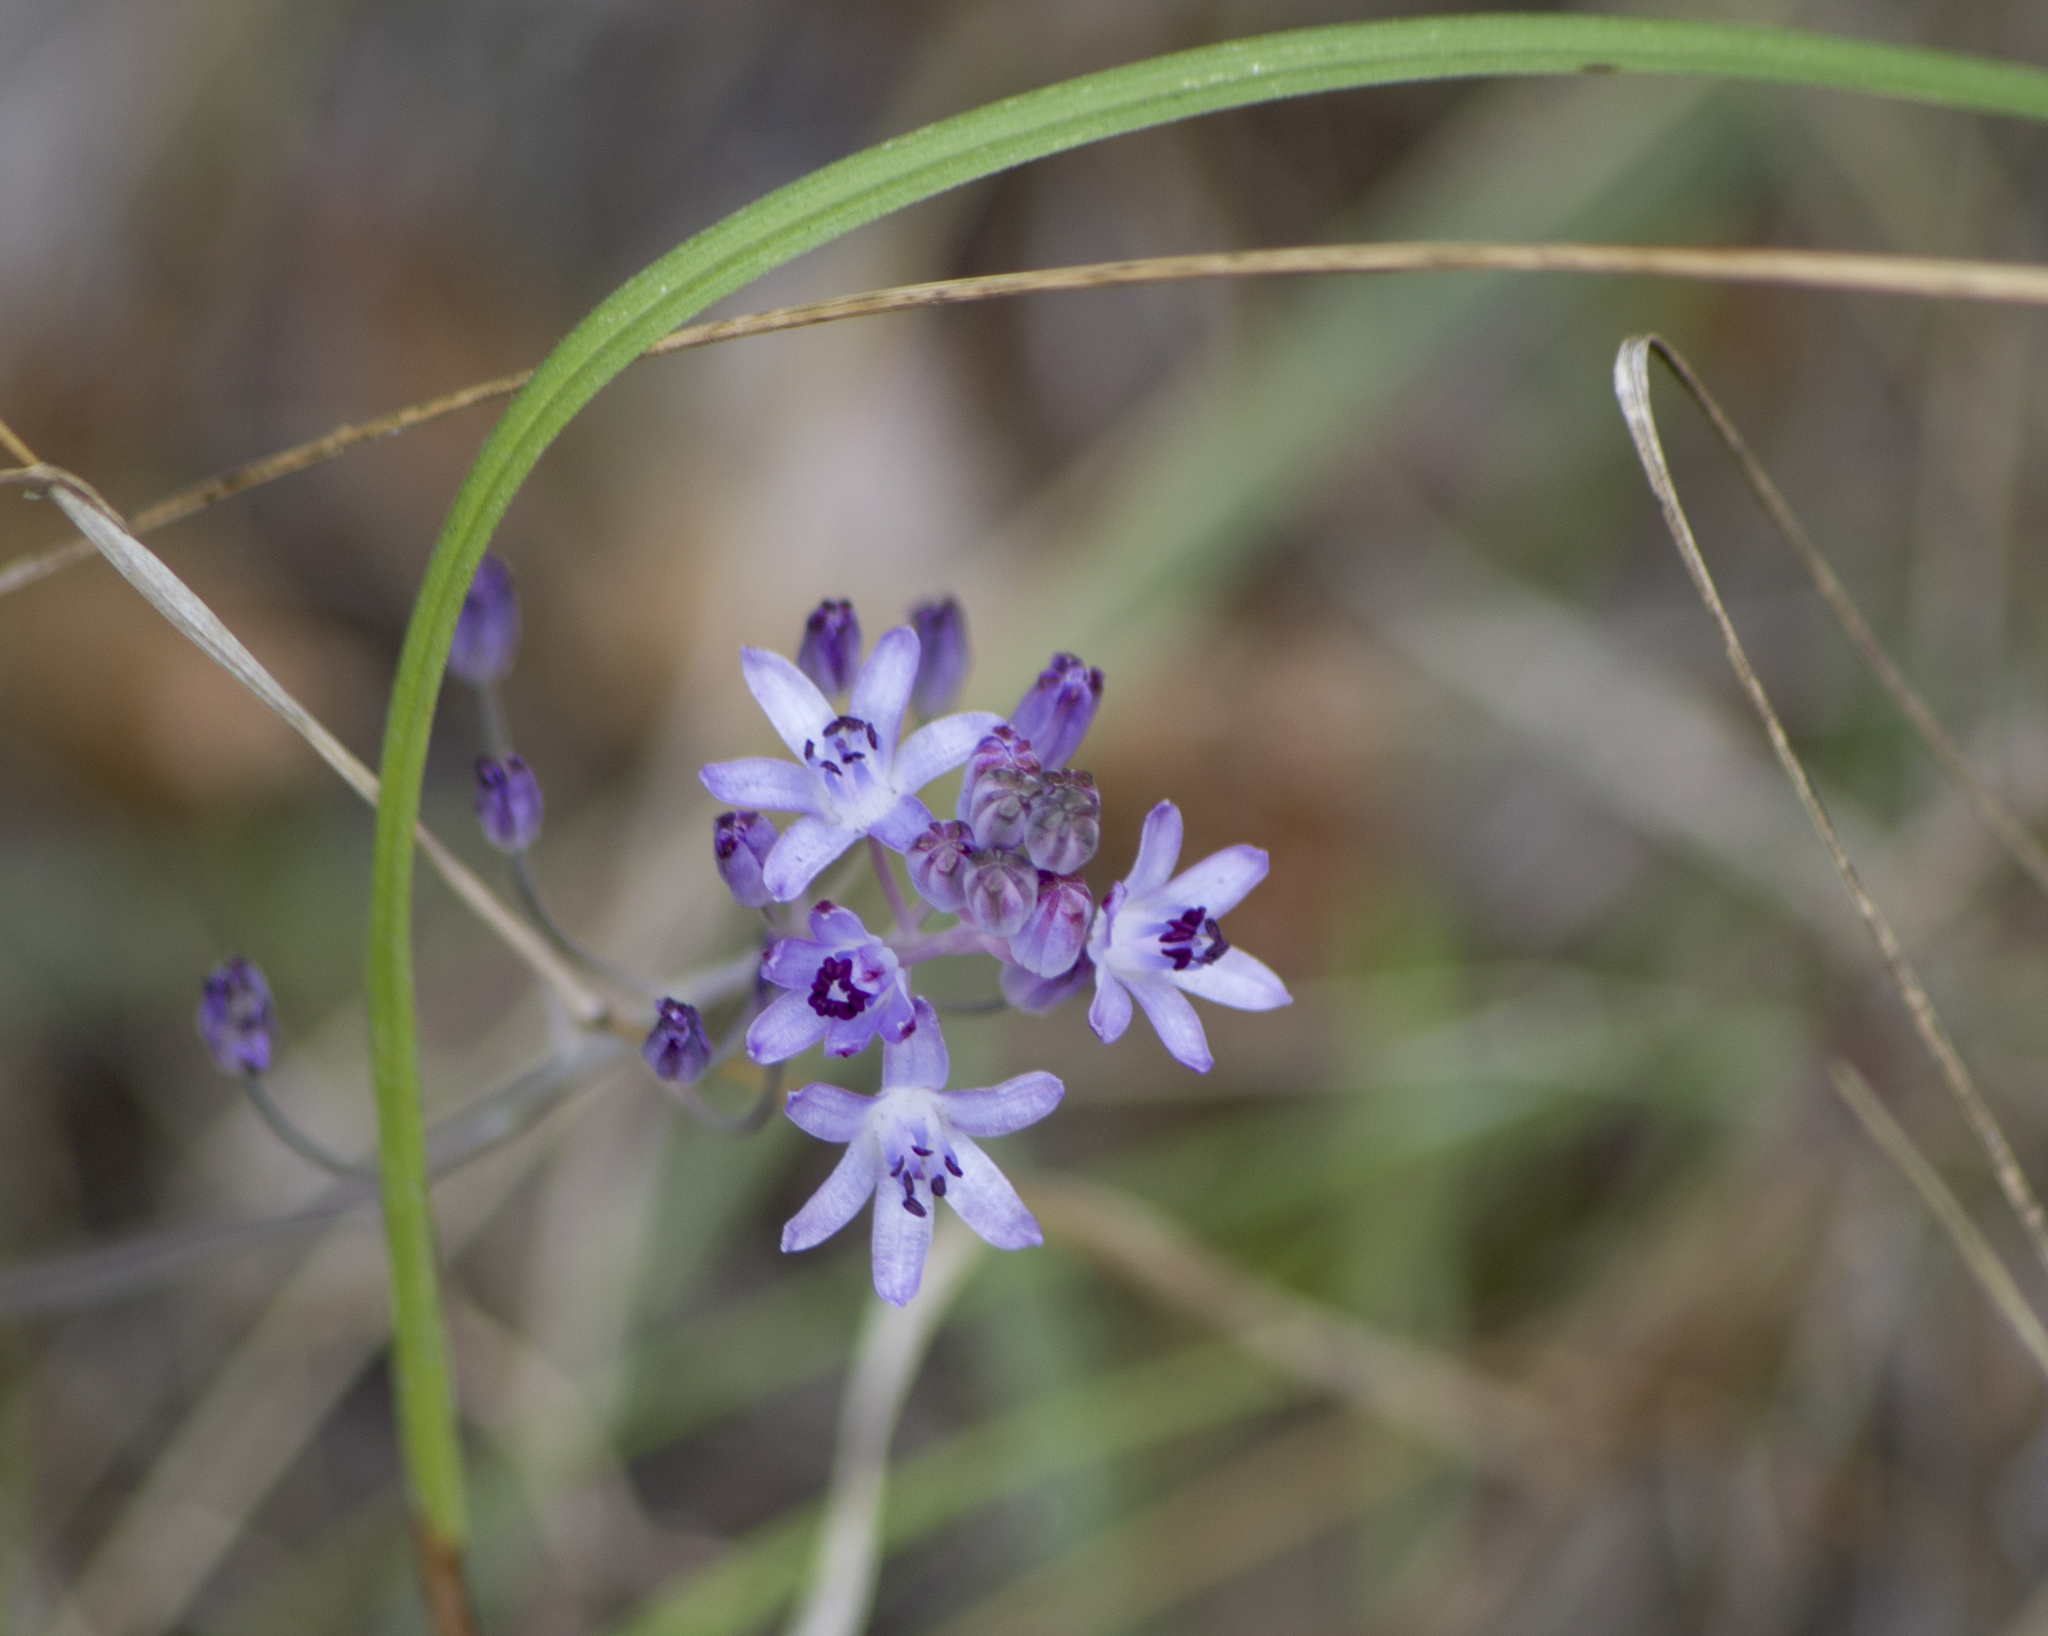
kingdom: Plantae
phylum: Tracheophyta
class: Liliopsida
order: Asparagales
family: Asparagaceae
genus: Prospero
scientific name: Prospero autumnale
